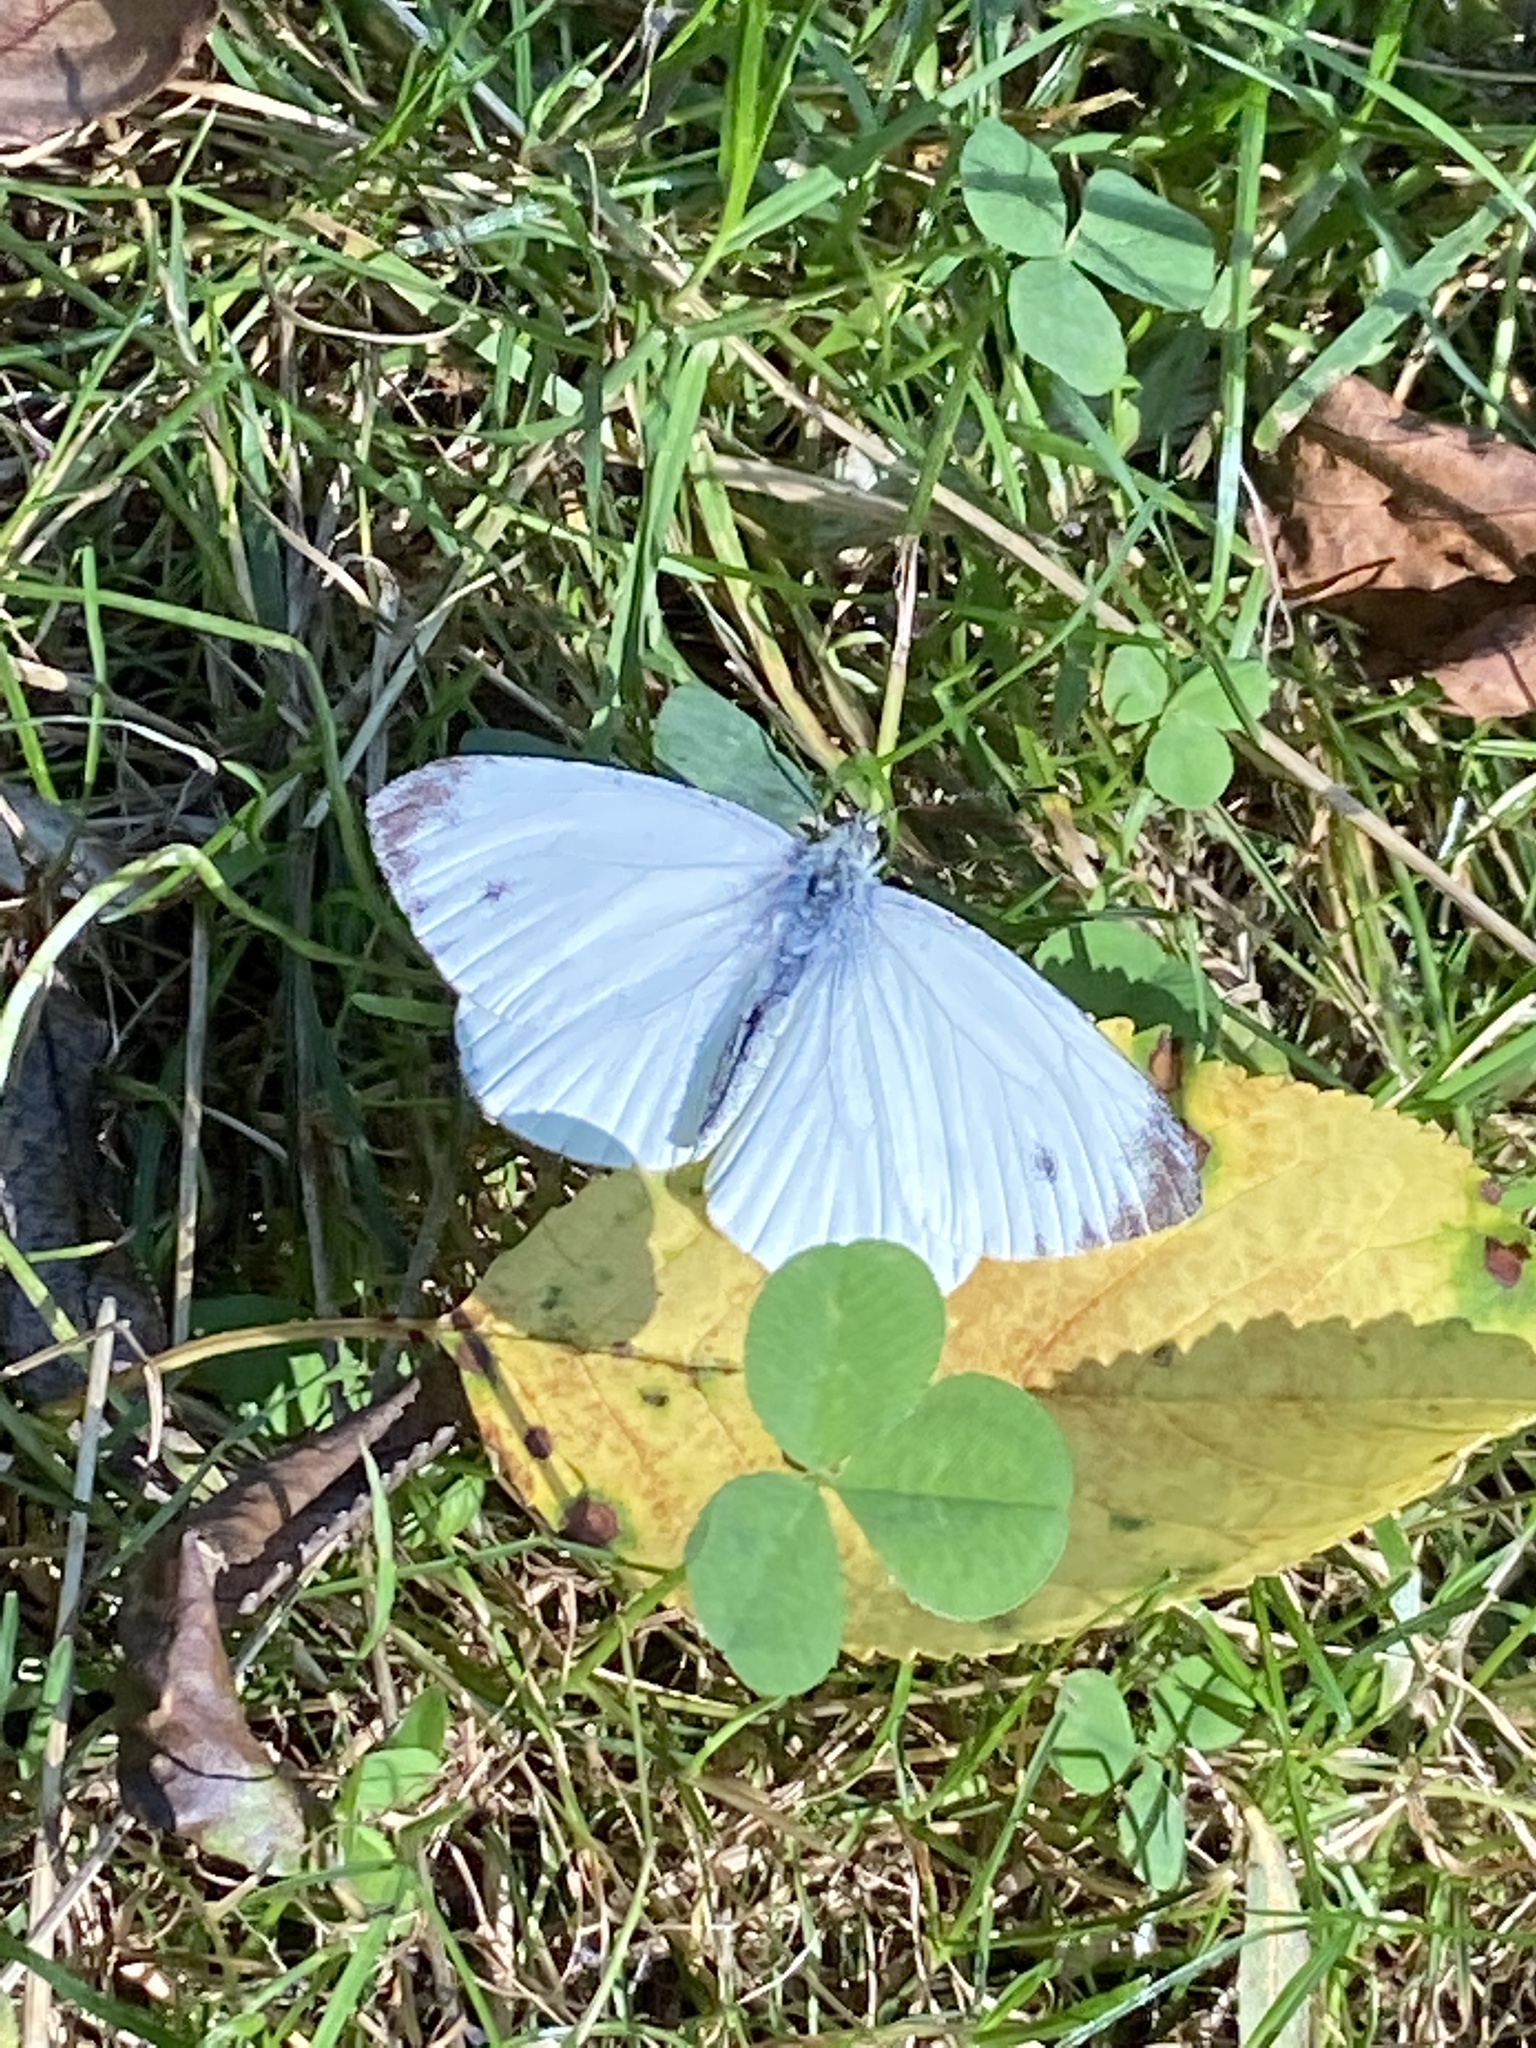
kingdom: Animalia
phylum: Arthropoda
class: Insecta
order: Lepidoptera
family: Pieridae
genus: Pieris
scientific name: Pieris napi
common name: Green-veined white
